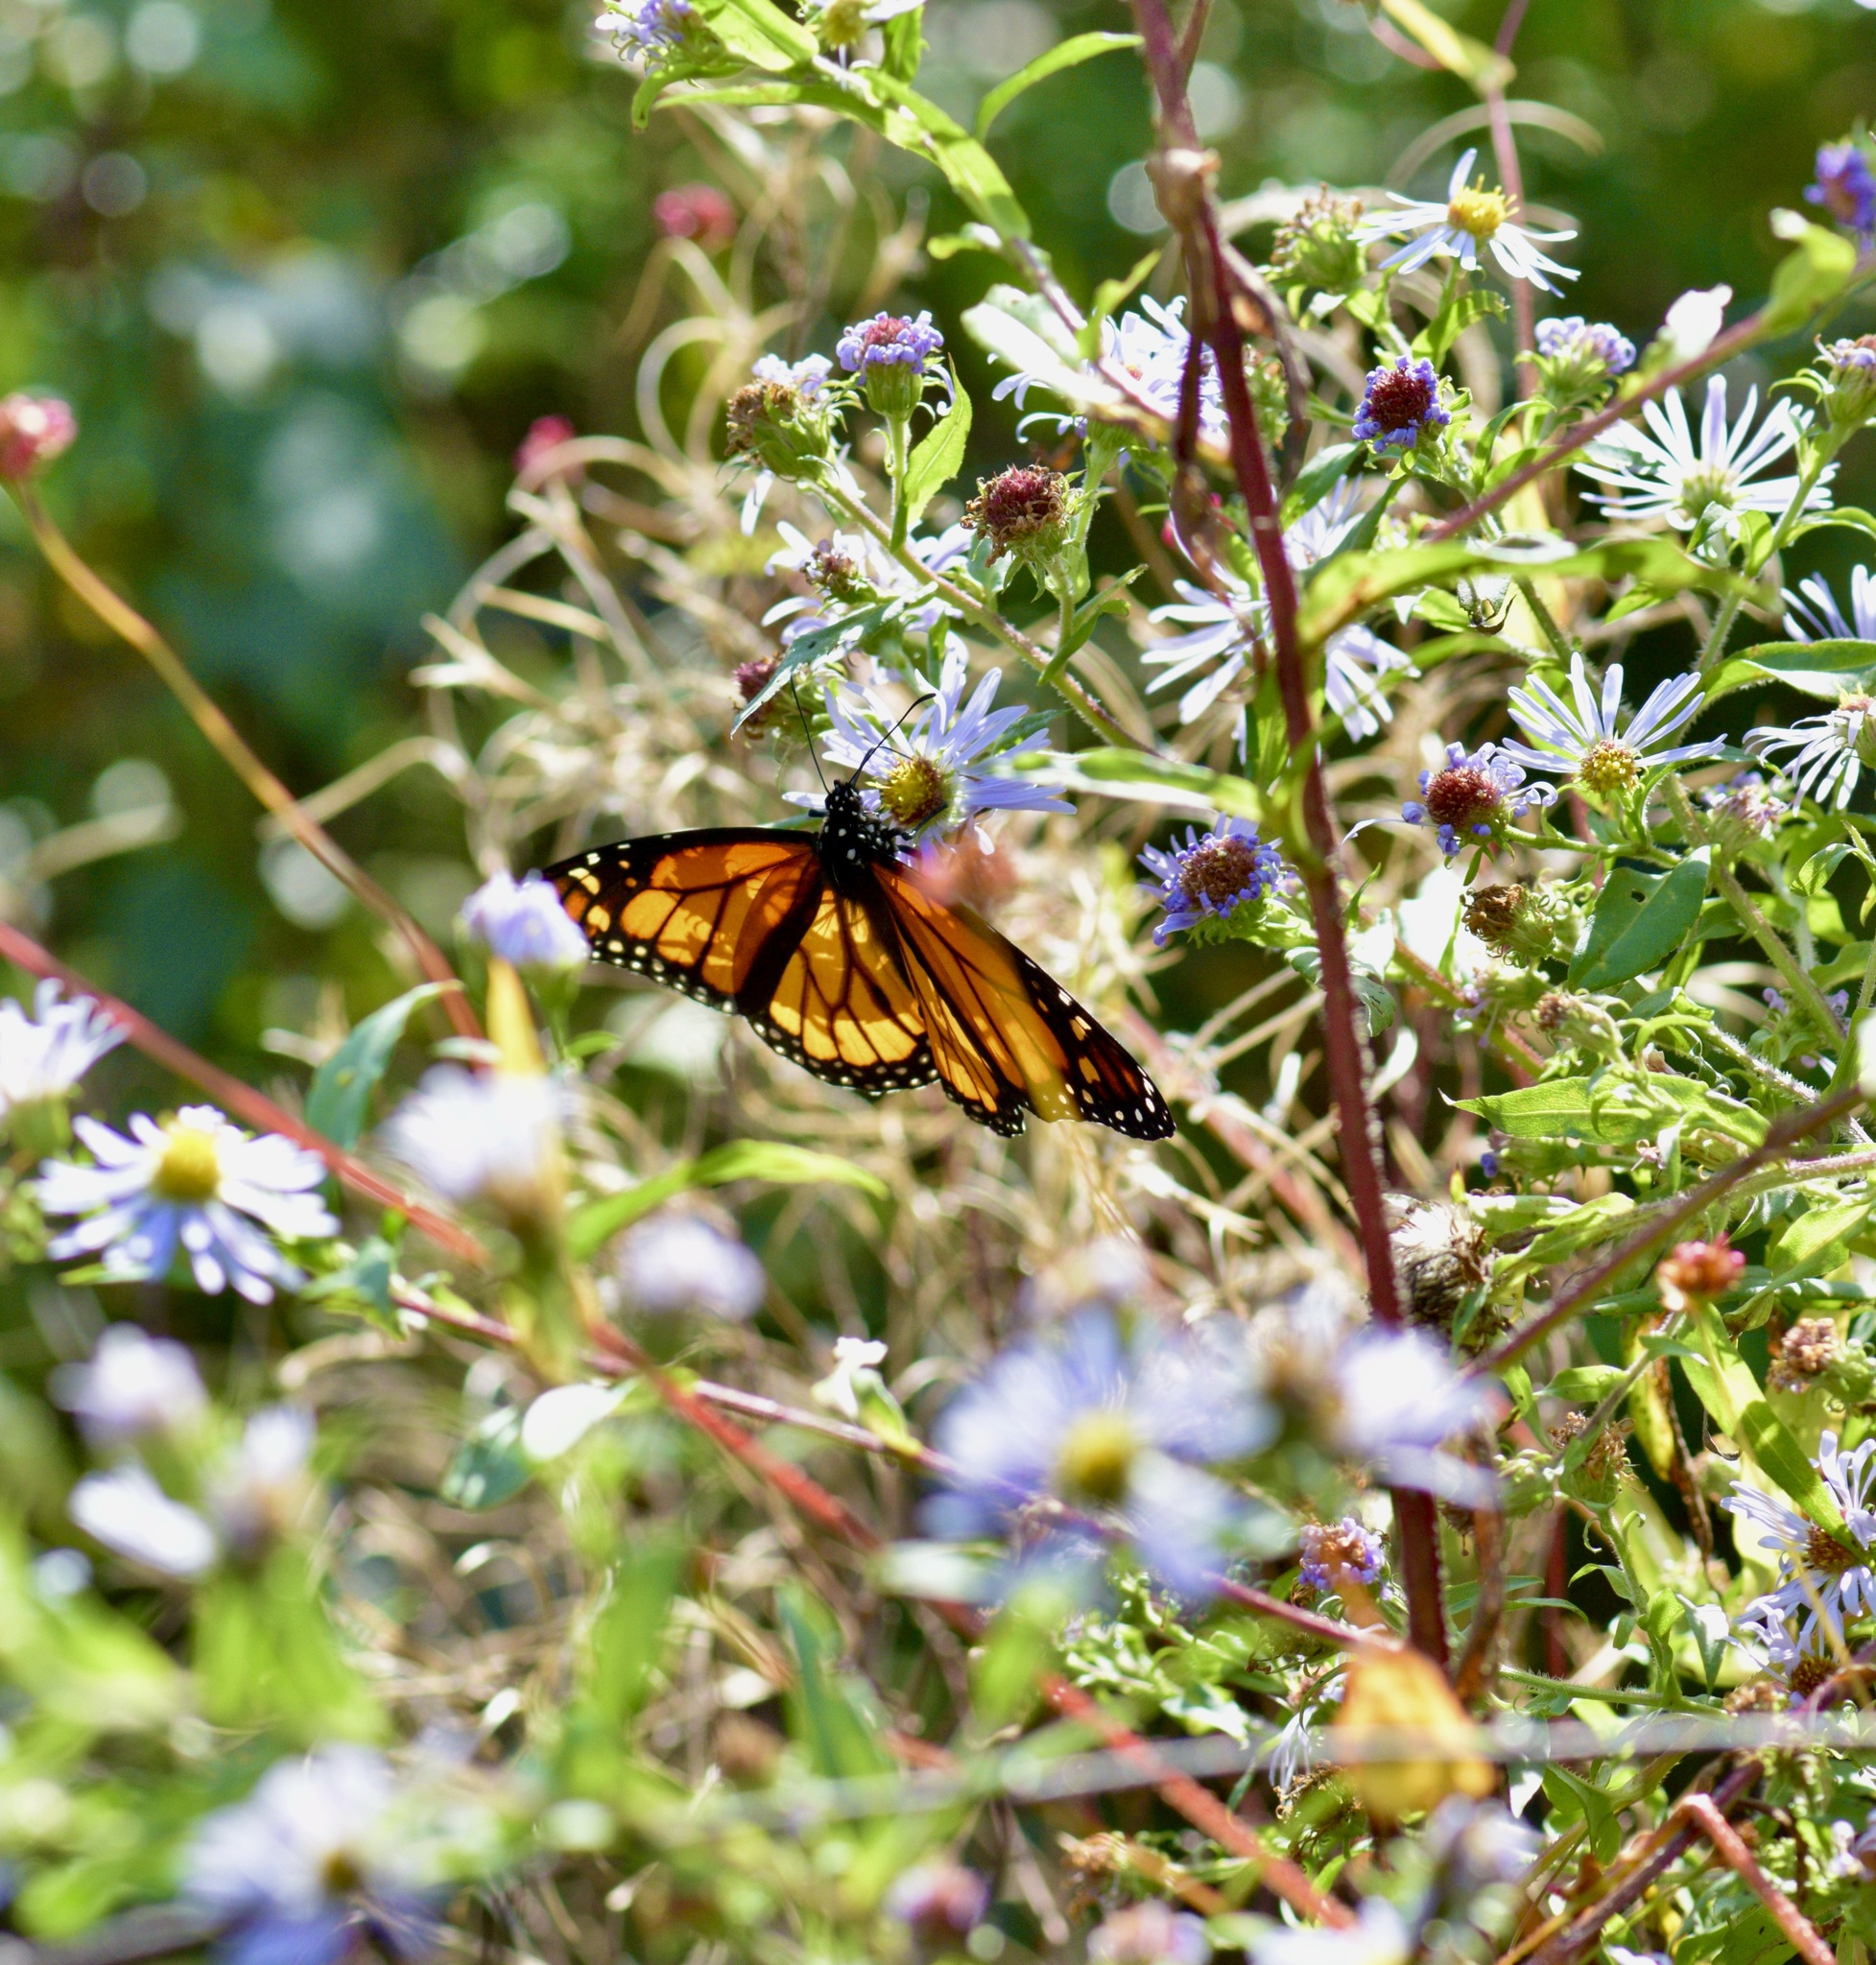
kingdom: Animalia
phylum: Arthropoda
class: Insecta
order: Lepidoptera
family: Nymphalidae
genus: Danaus
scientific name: Danaus plexippus
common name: Monarch
